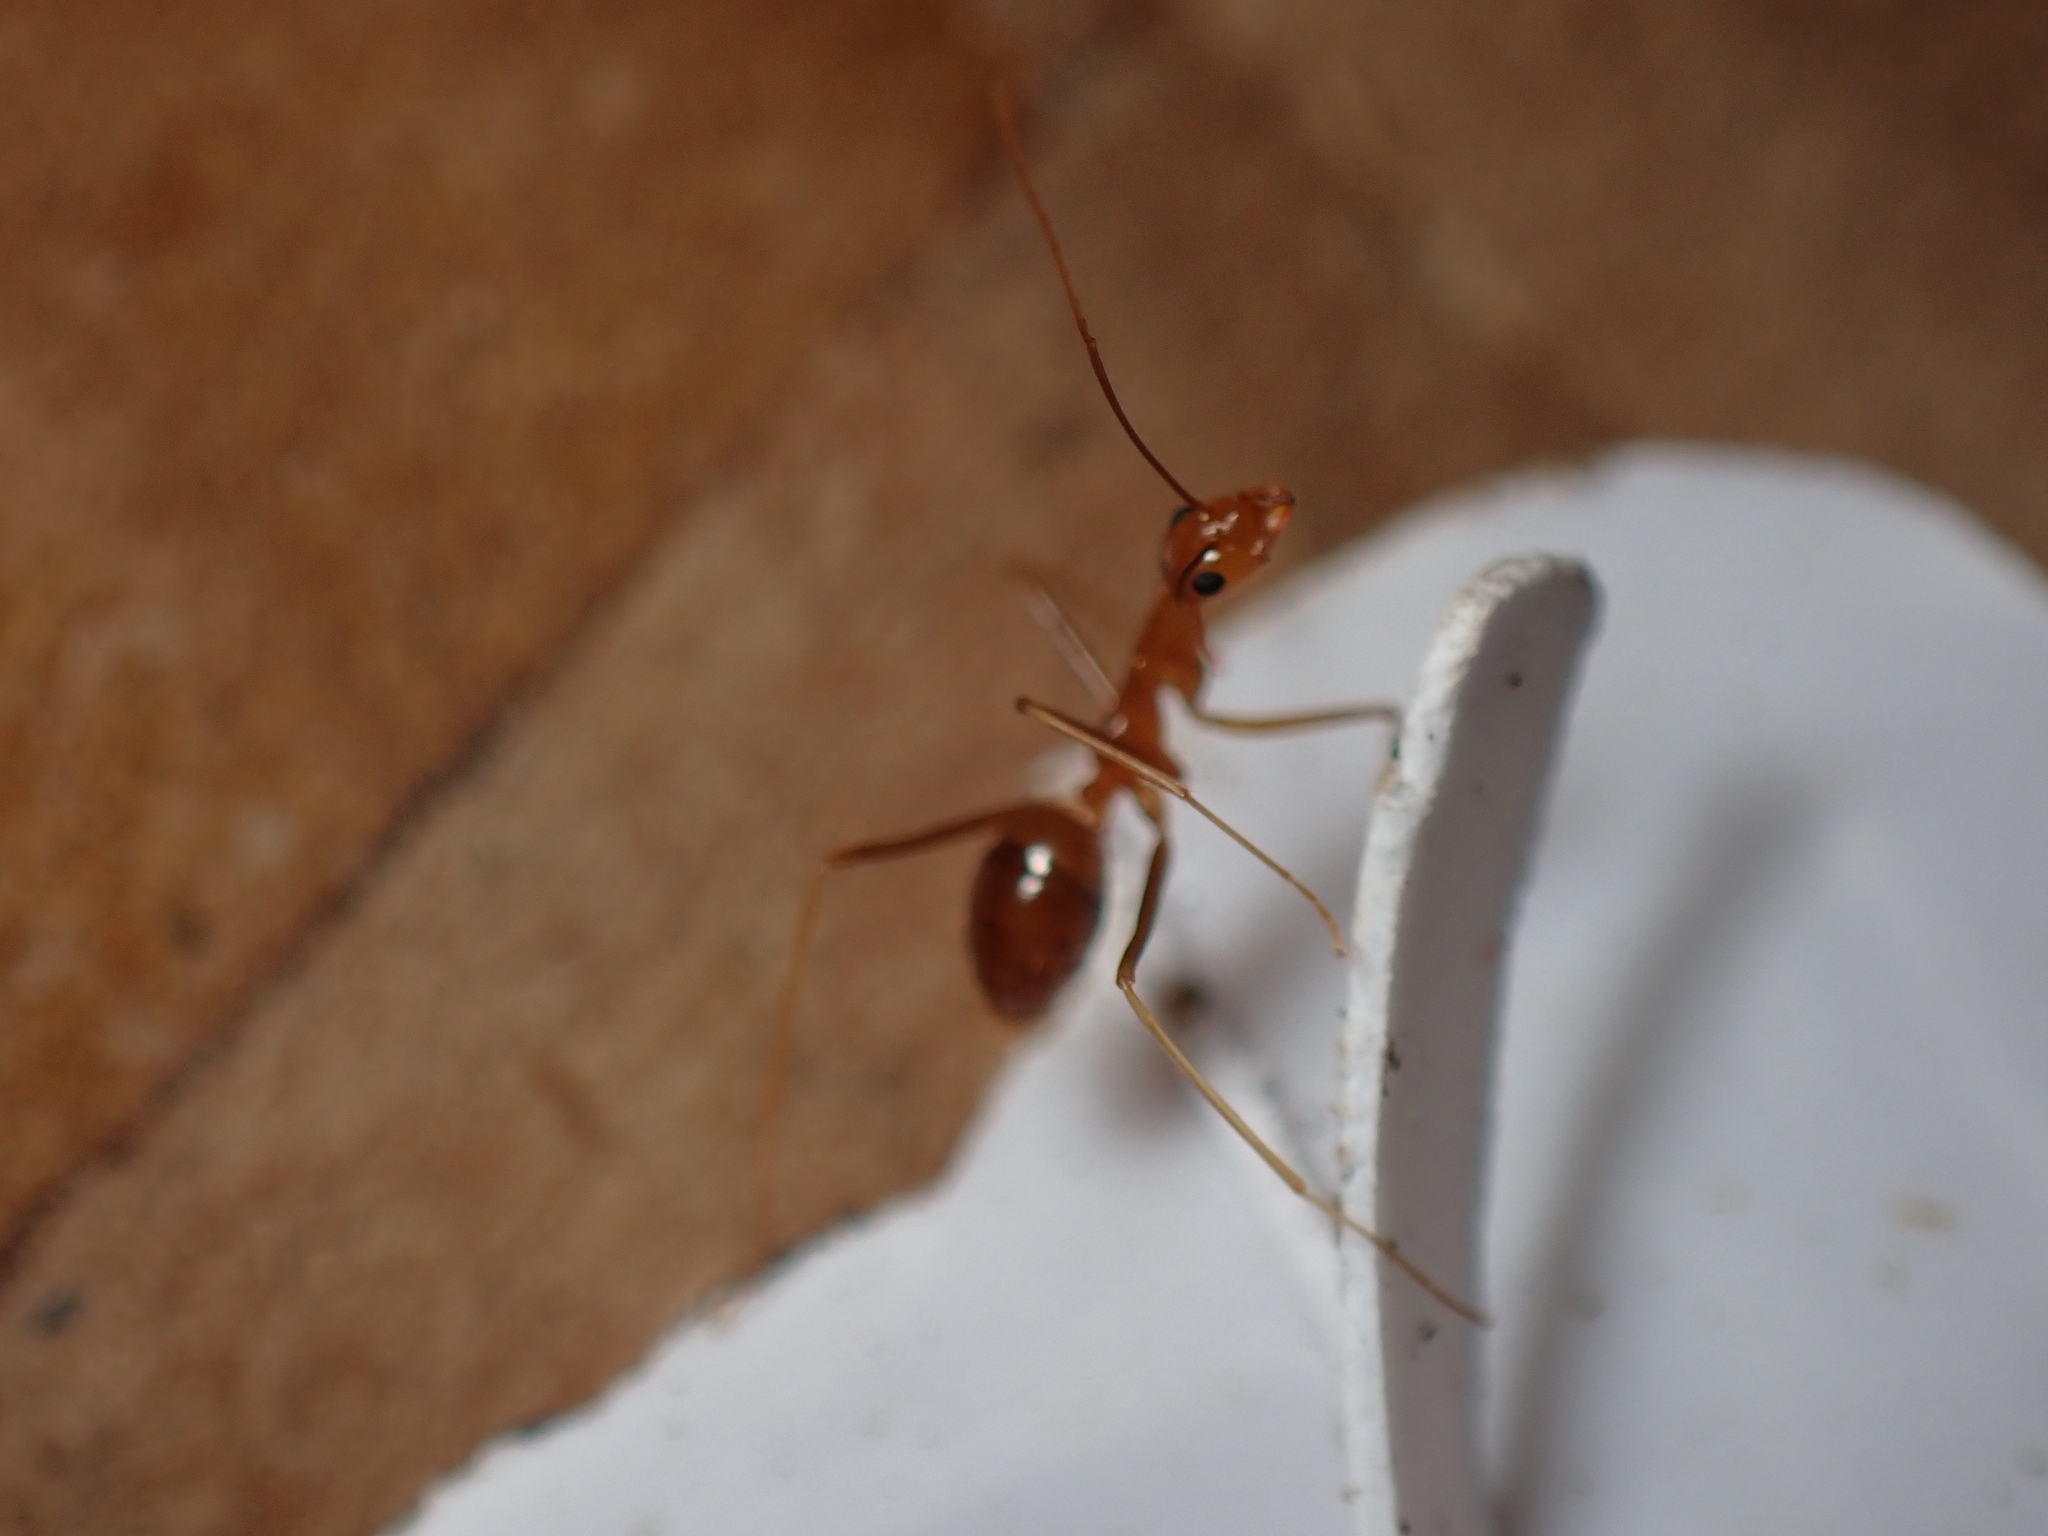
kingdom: Animalia
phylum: Arthropoda
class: Insecta
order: Hymenoptera
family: Formicidae
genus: Anoplolepis
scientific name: Anoplolepis gracilipes
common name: Ant
